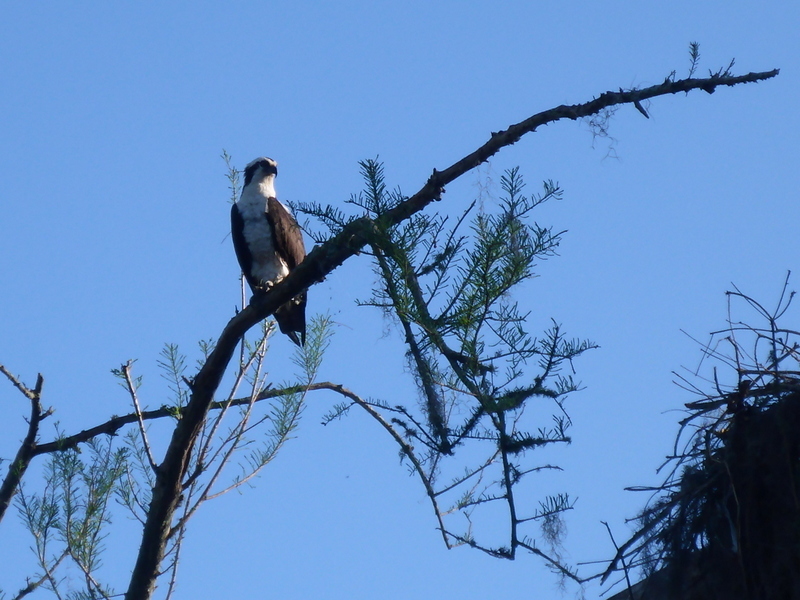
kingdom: Animalia
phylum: Chordata
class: Aves
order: Accipitriformes
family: Pandionidae
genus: Pandion
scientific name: Pandion haliaetus
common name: Osprey
